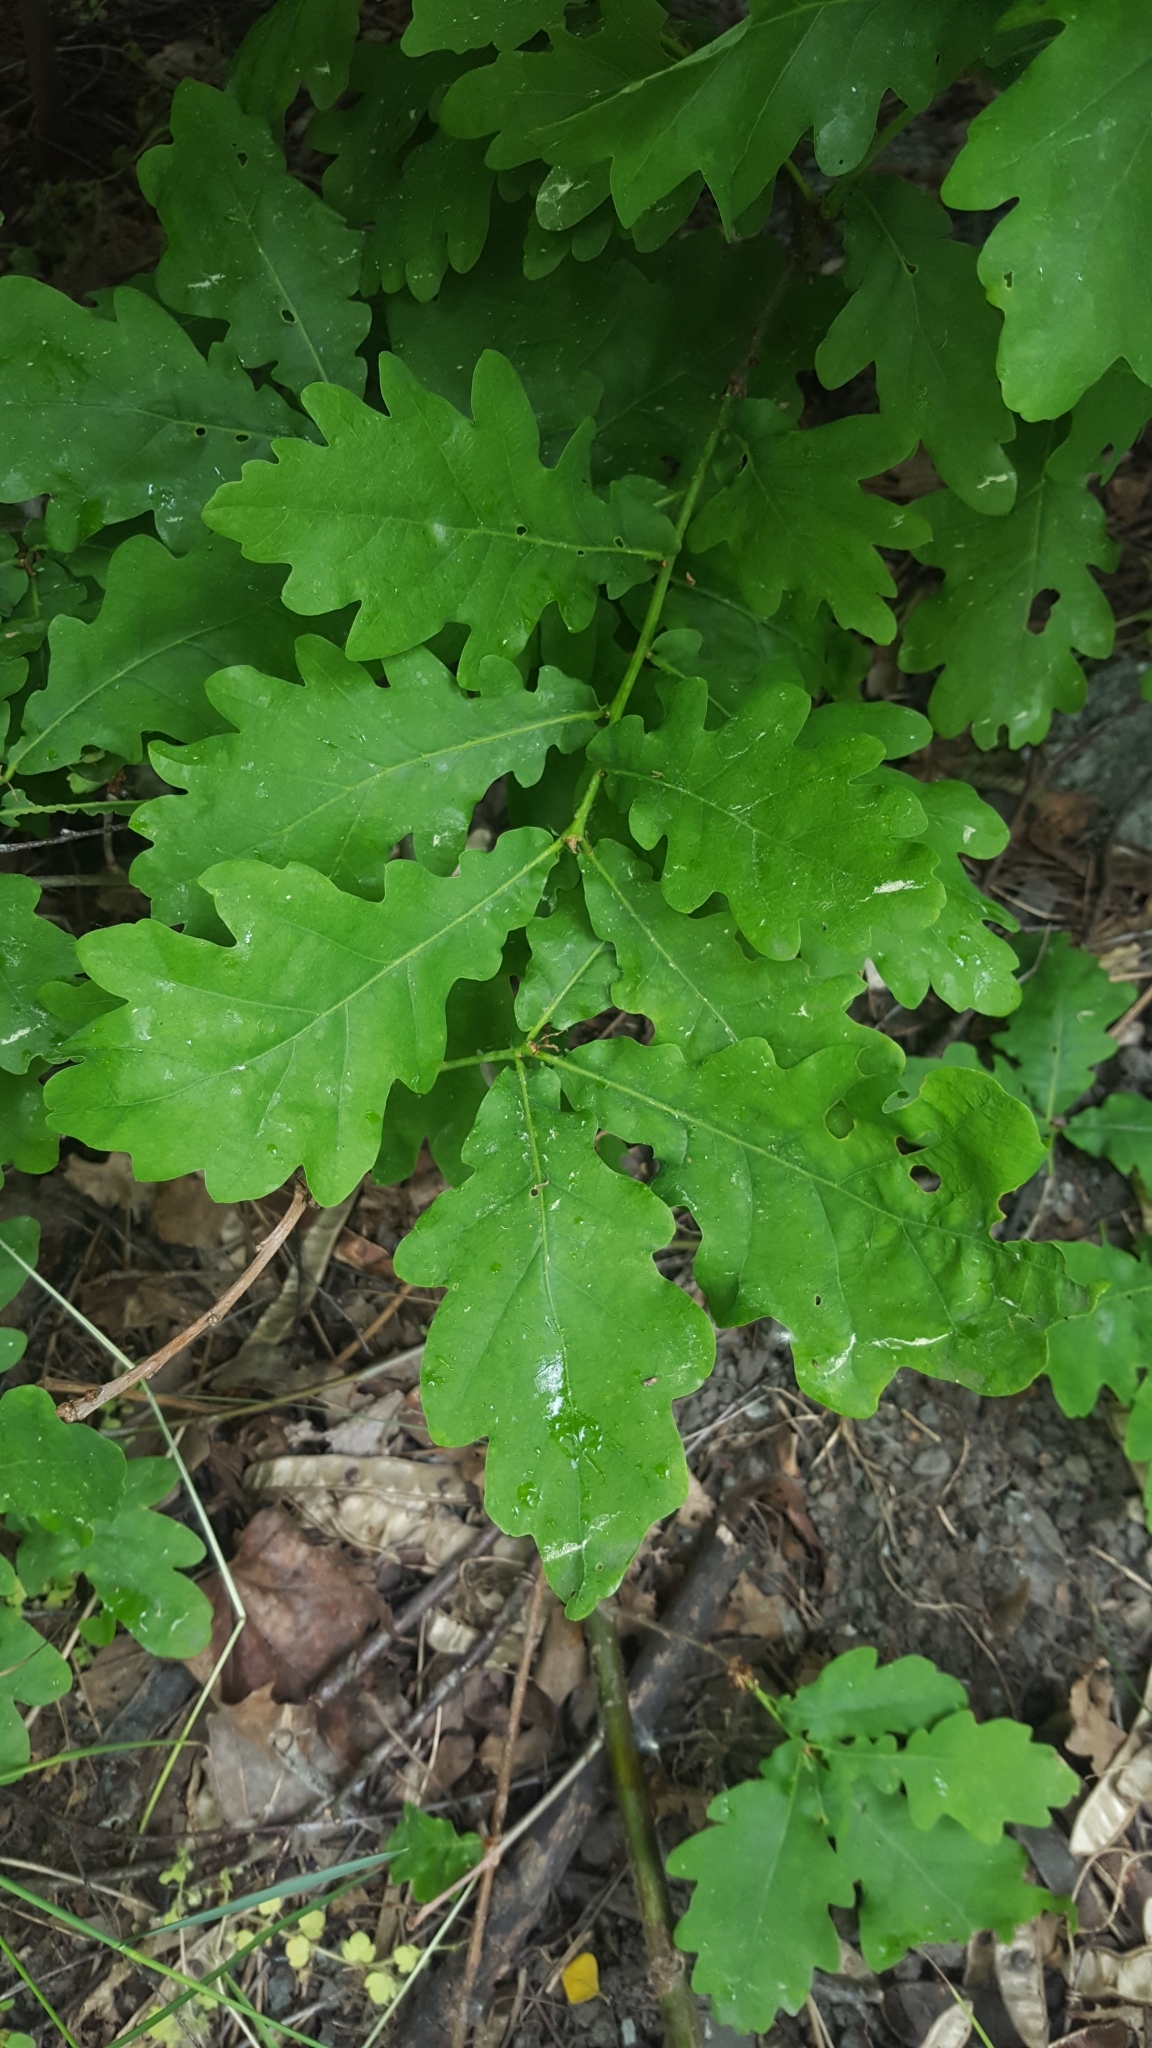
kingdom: Plantae
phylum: Tracheophyta
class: Magnoliopsida
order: Fagales
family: Fagaceae
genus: Quercus
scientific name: Quercus robur
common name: Pedunculate oak
